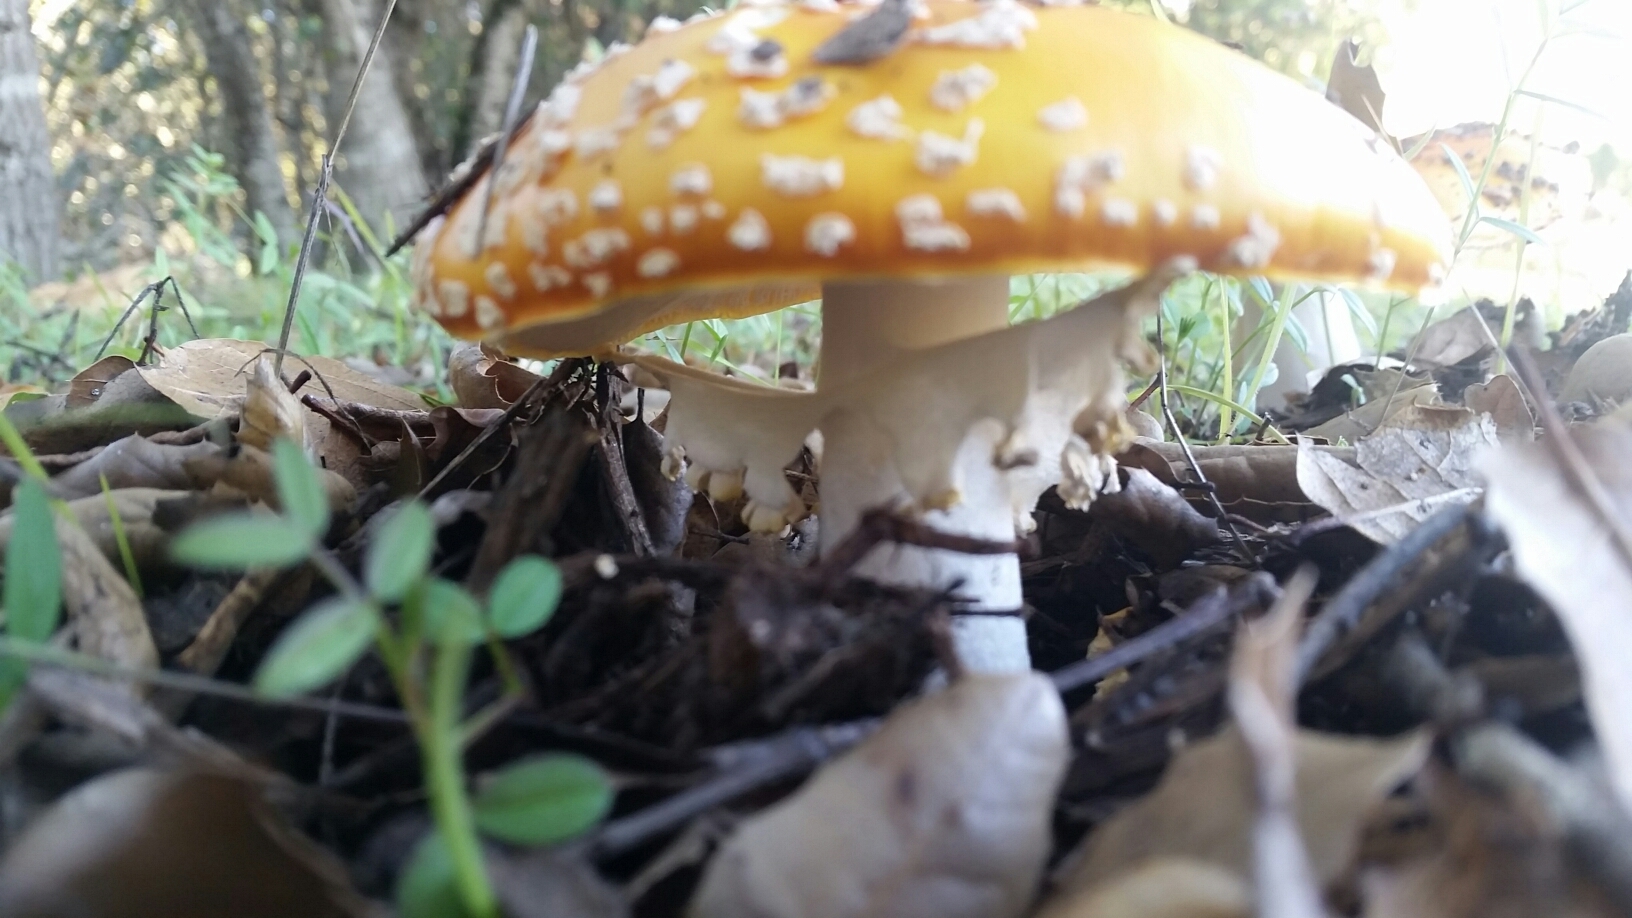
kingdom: Fungi
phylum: Basidiomycota
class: Agaricomycetes
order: Agaricales
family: Amanitaceae
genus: Amanita
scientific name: Amanita muscaria
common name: Fly agaric
